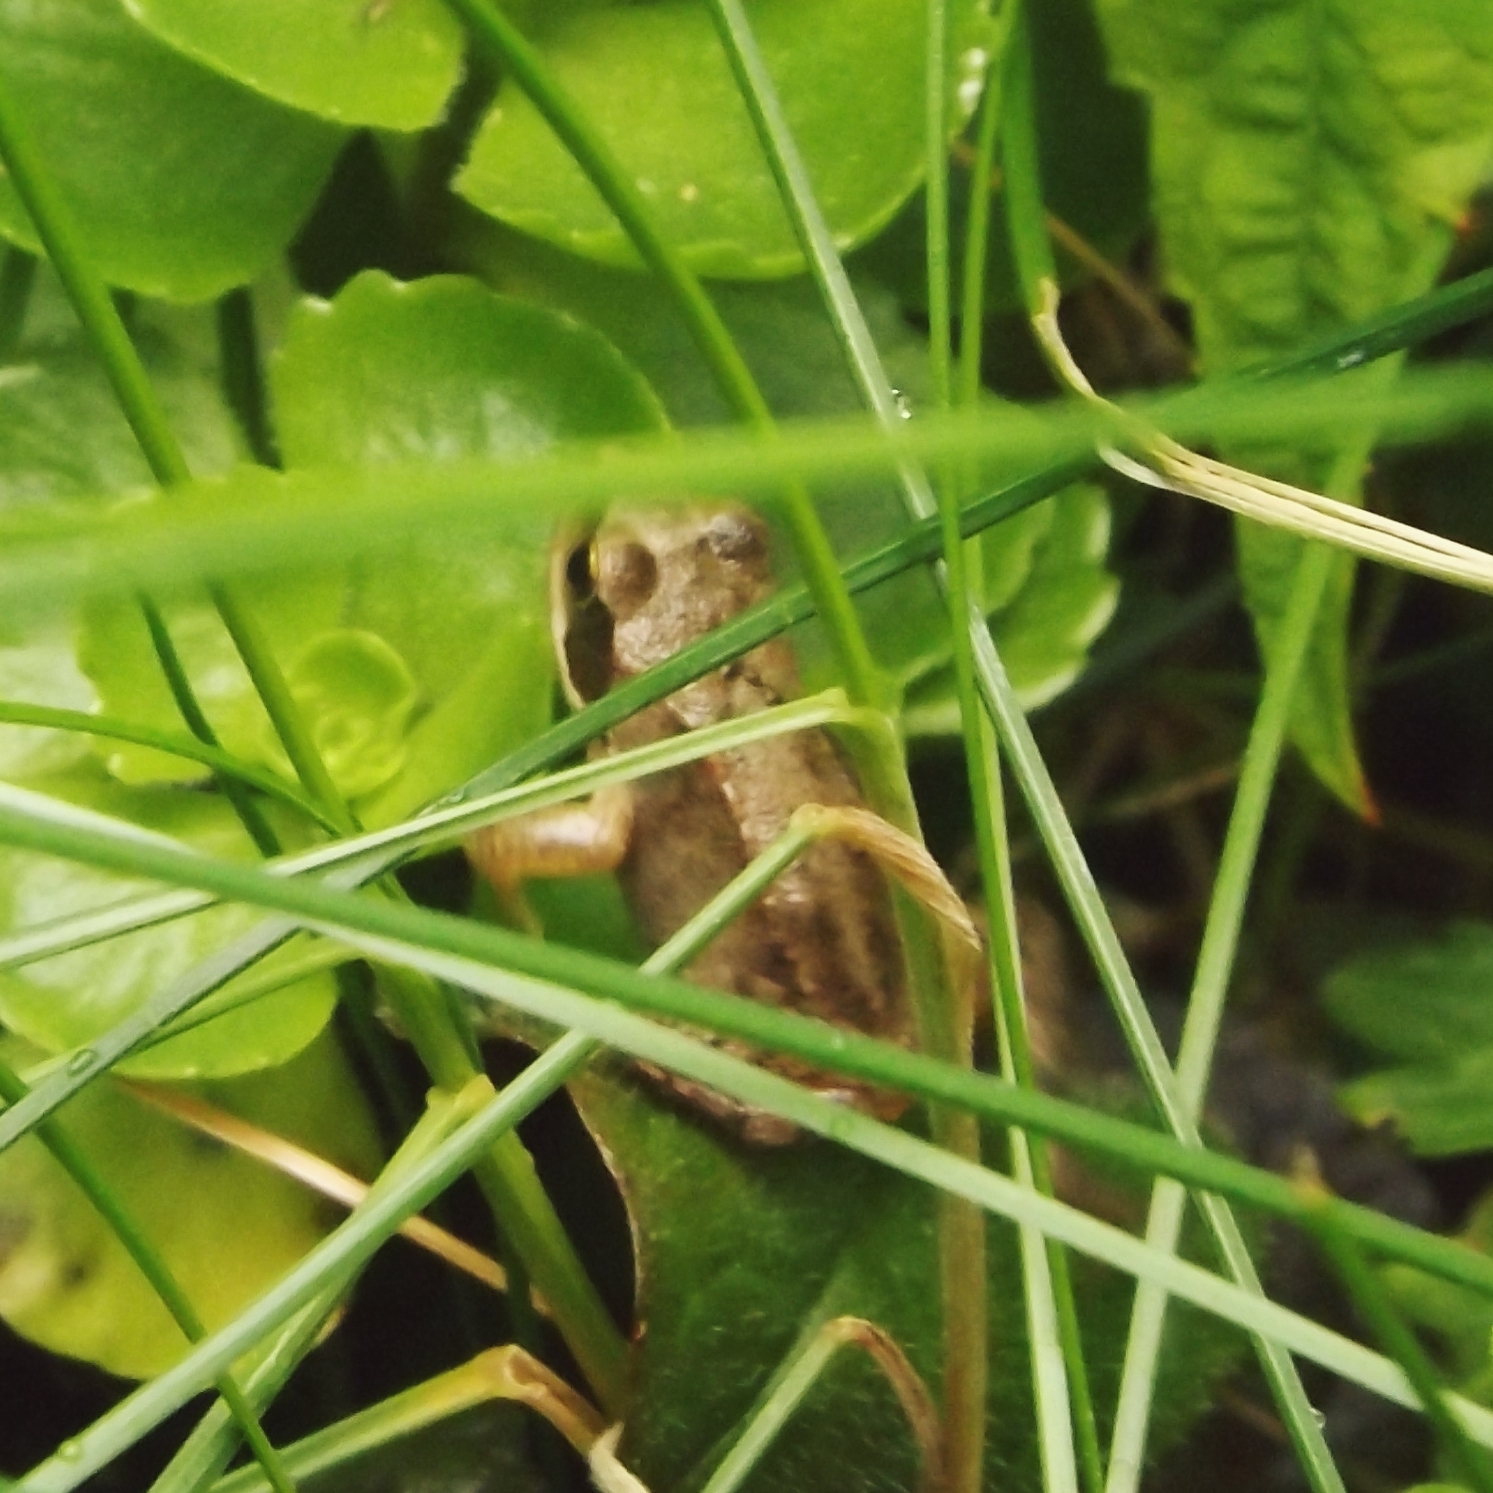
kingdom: Animalia
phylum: Chordata
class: Amphibia
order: Anura
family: Ranidae
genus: Rana
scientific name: Rana temporaria
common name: Common frog
